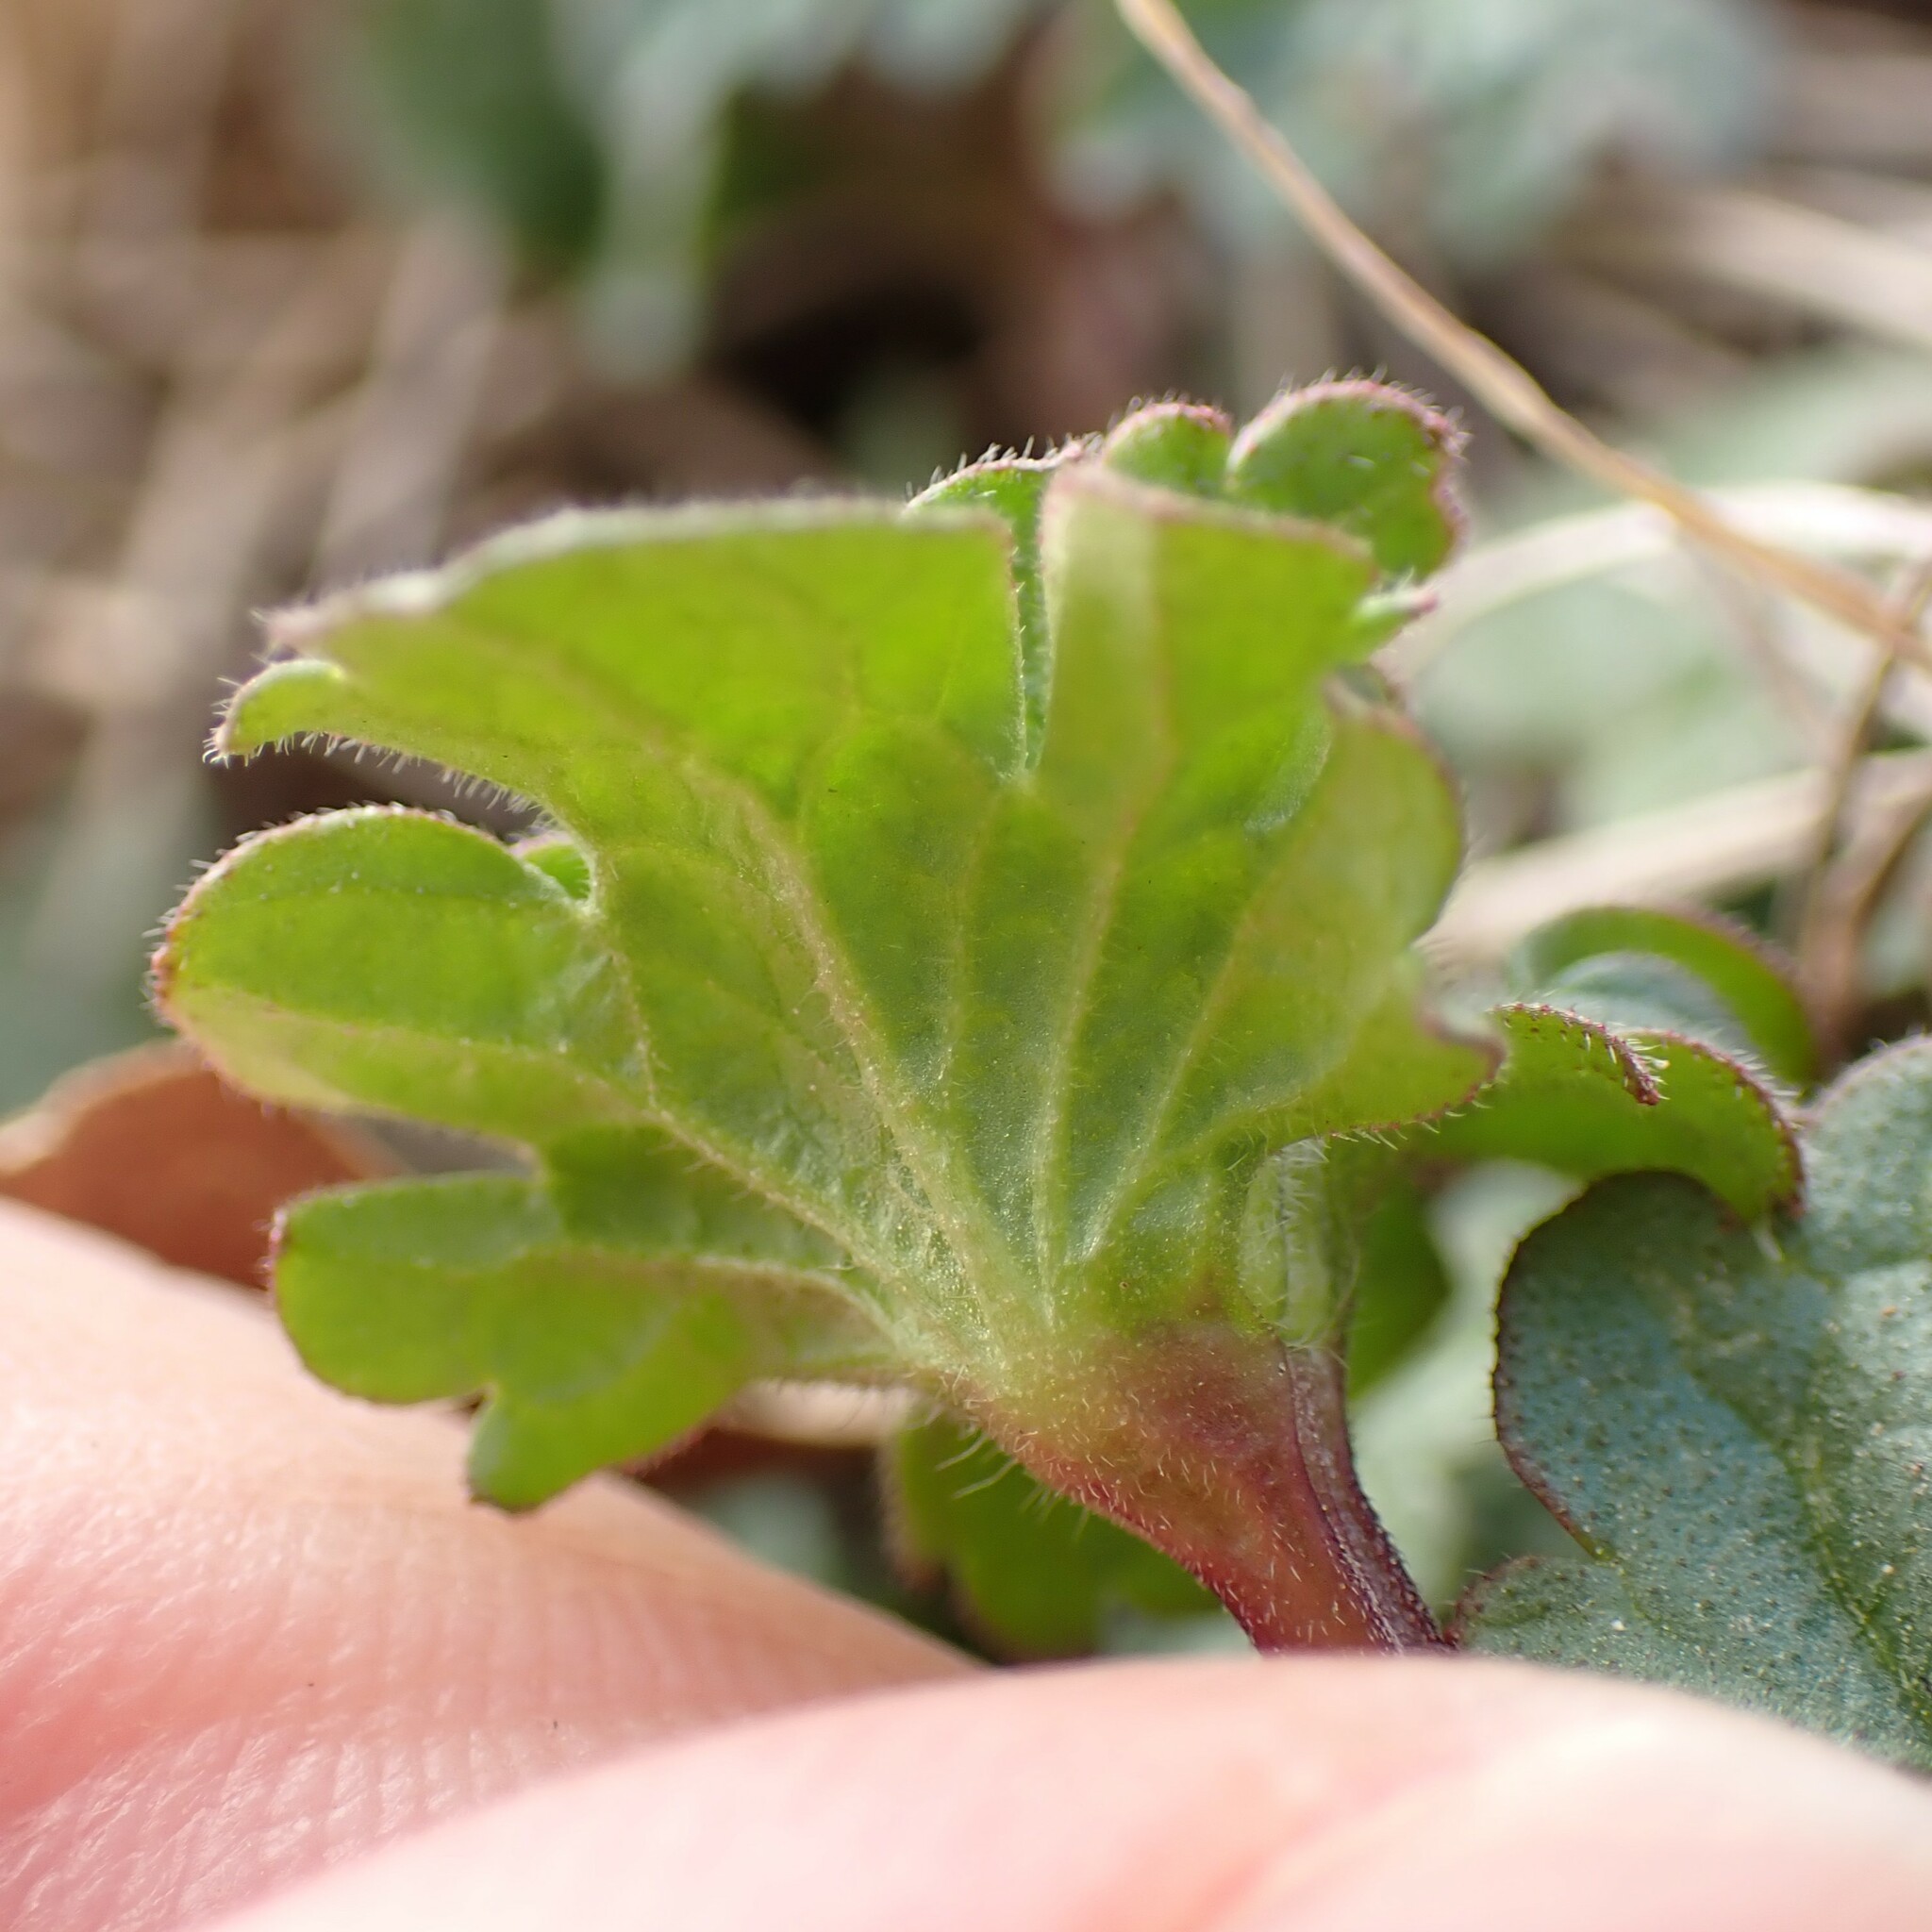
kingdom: Plantae
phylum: Tracheophyta
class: Magnoliopsida
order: Lamiales
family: Lamiaceae
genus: Lamium
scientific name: Lamium amplexicaule
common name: Henbit dead-nettle
